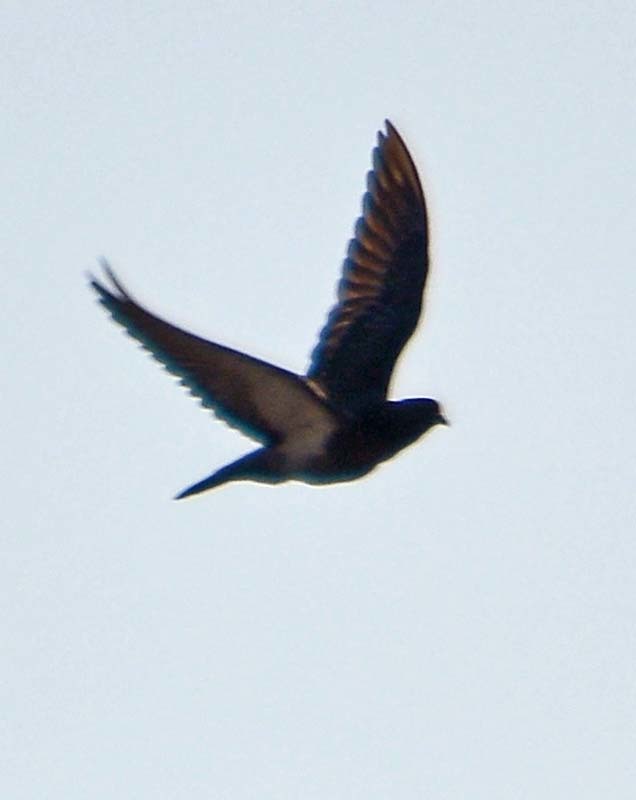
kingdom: Animalia
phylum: Chordata
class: Aves
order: Columbiformes
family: Columbidae
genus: Columba
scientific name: Columba livia
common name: Rock pigeon
